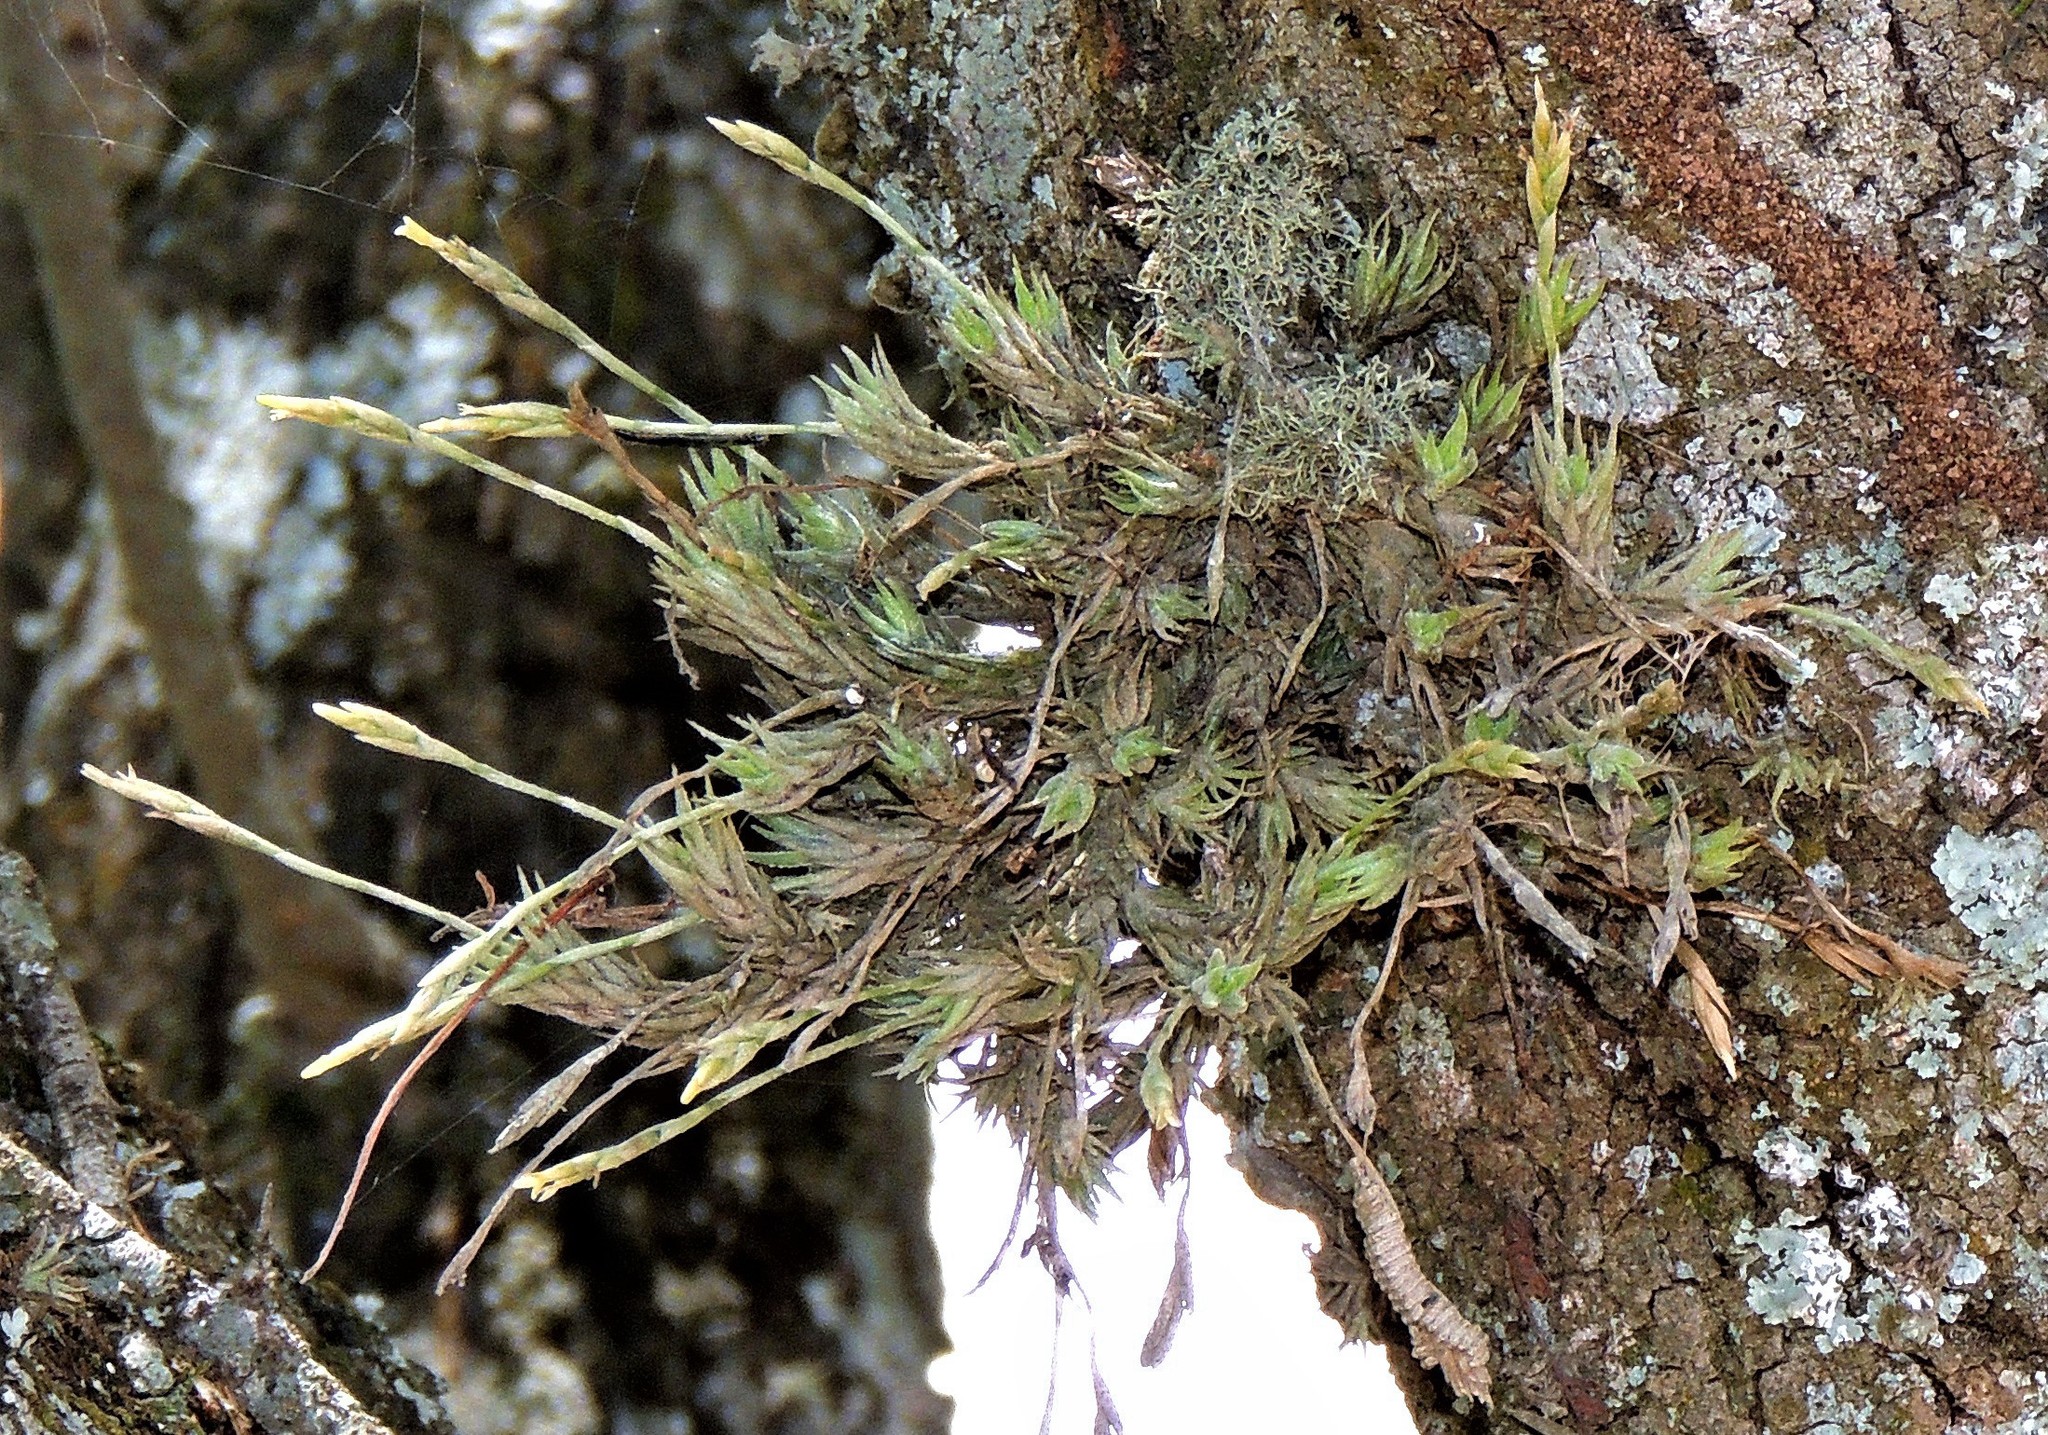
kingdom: Plantae
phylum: Tracheophyta
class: Liliopsida
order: Poales
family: Bromeliaceae
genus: Tillandsia
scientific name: Tillandsia tricholepis
